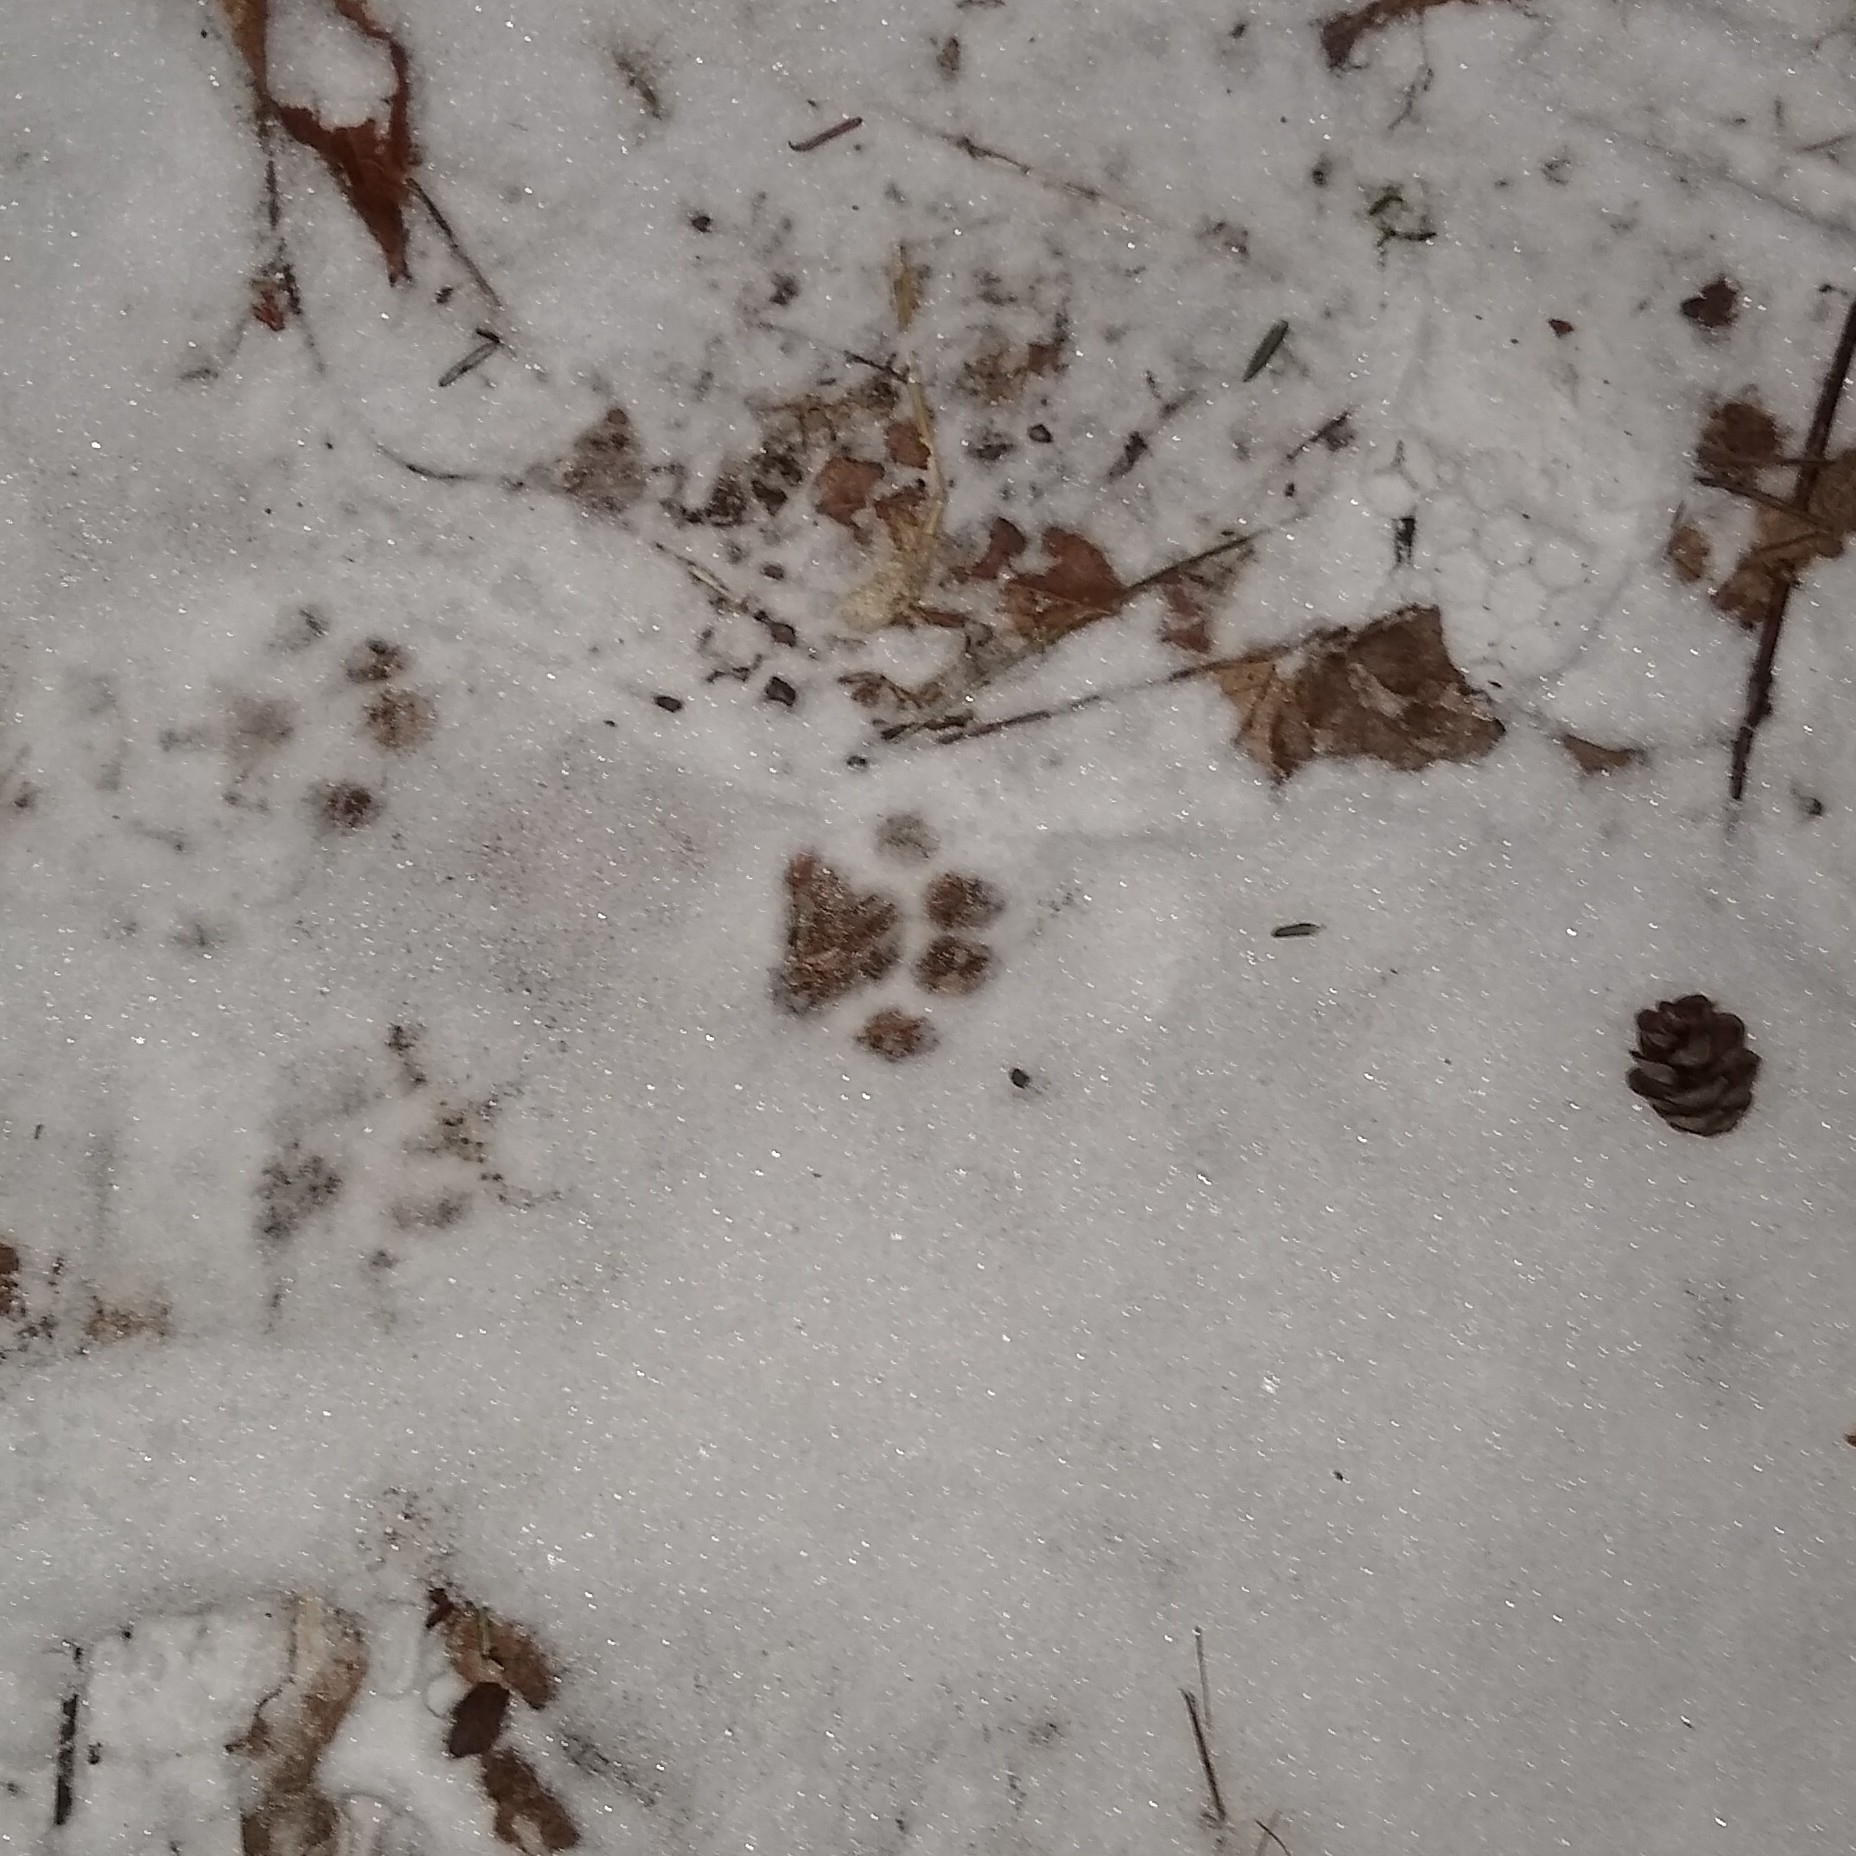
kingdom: Animalia
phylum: Chordata
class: Mammalia
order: Carnivora
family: Felidae
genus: Felis
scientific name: Felis catus
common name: Domestic cat
